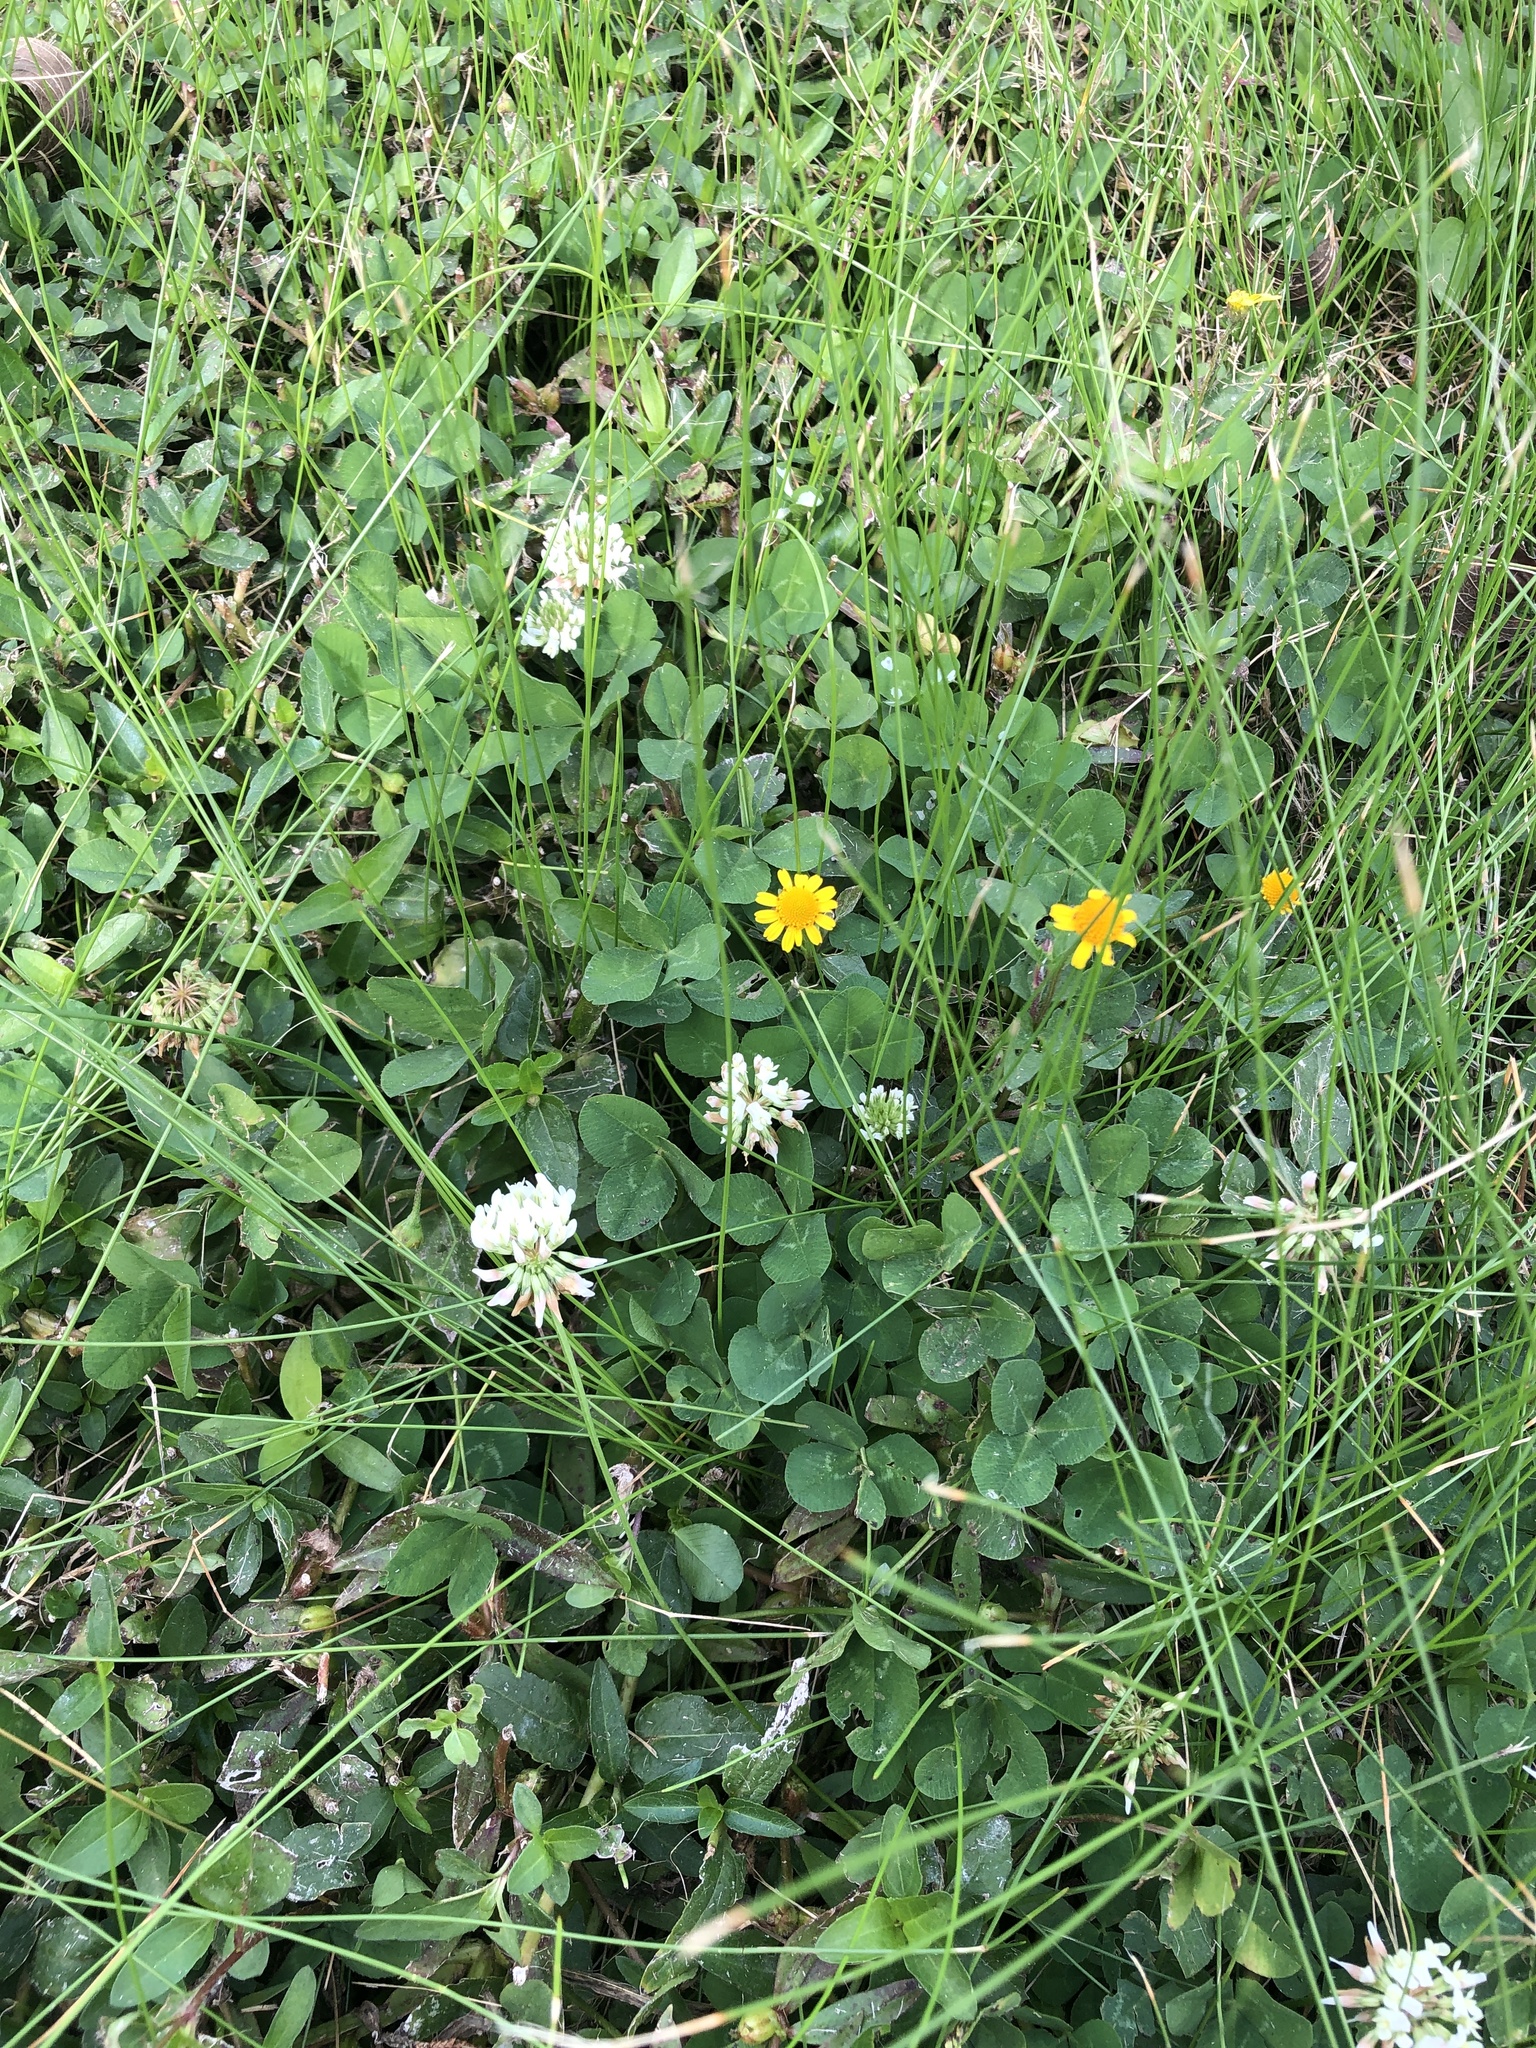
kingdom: Plantae
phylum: Tracheophyta
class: Magnoliopsida
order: Fabales
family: Fabaceae
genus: Trifolium
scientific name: Trifolium repens
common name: White clover
